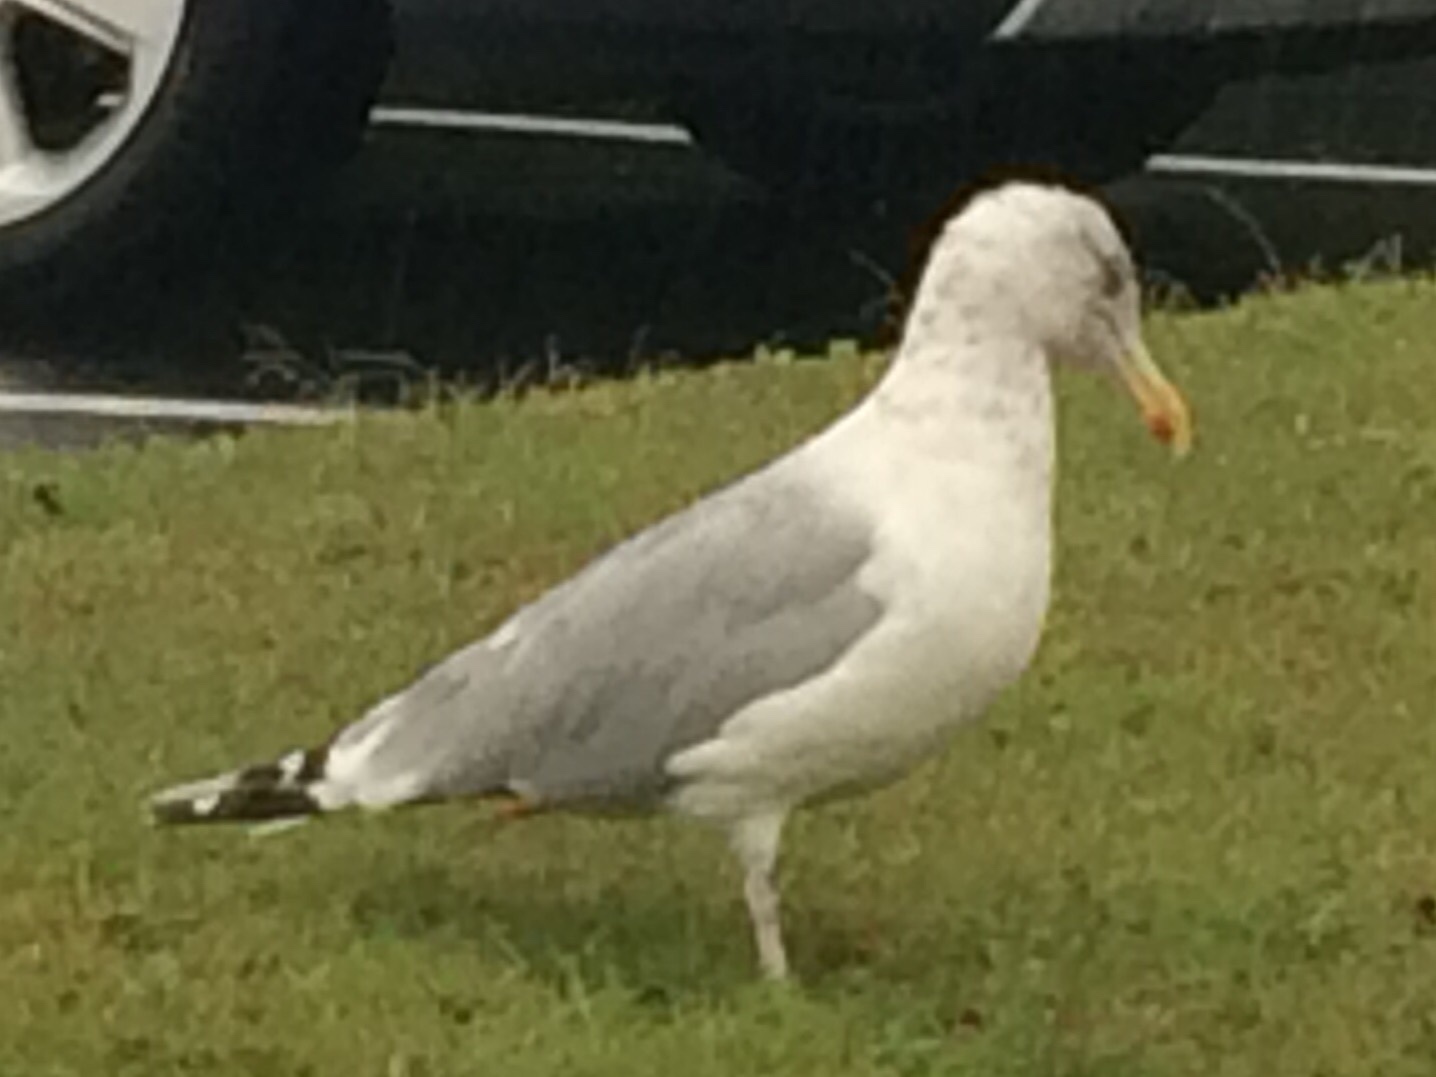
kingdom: Animalia
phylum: Chordata
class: Aves
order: Charadriiformes
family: Laridae
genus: Larus
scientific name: Larus argentatus
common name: Herring gull
